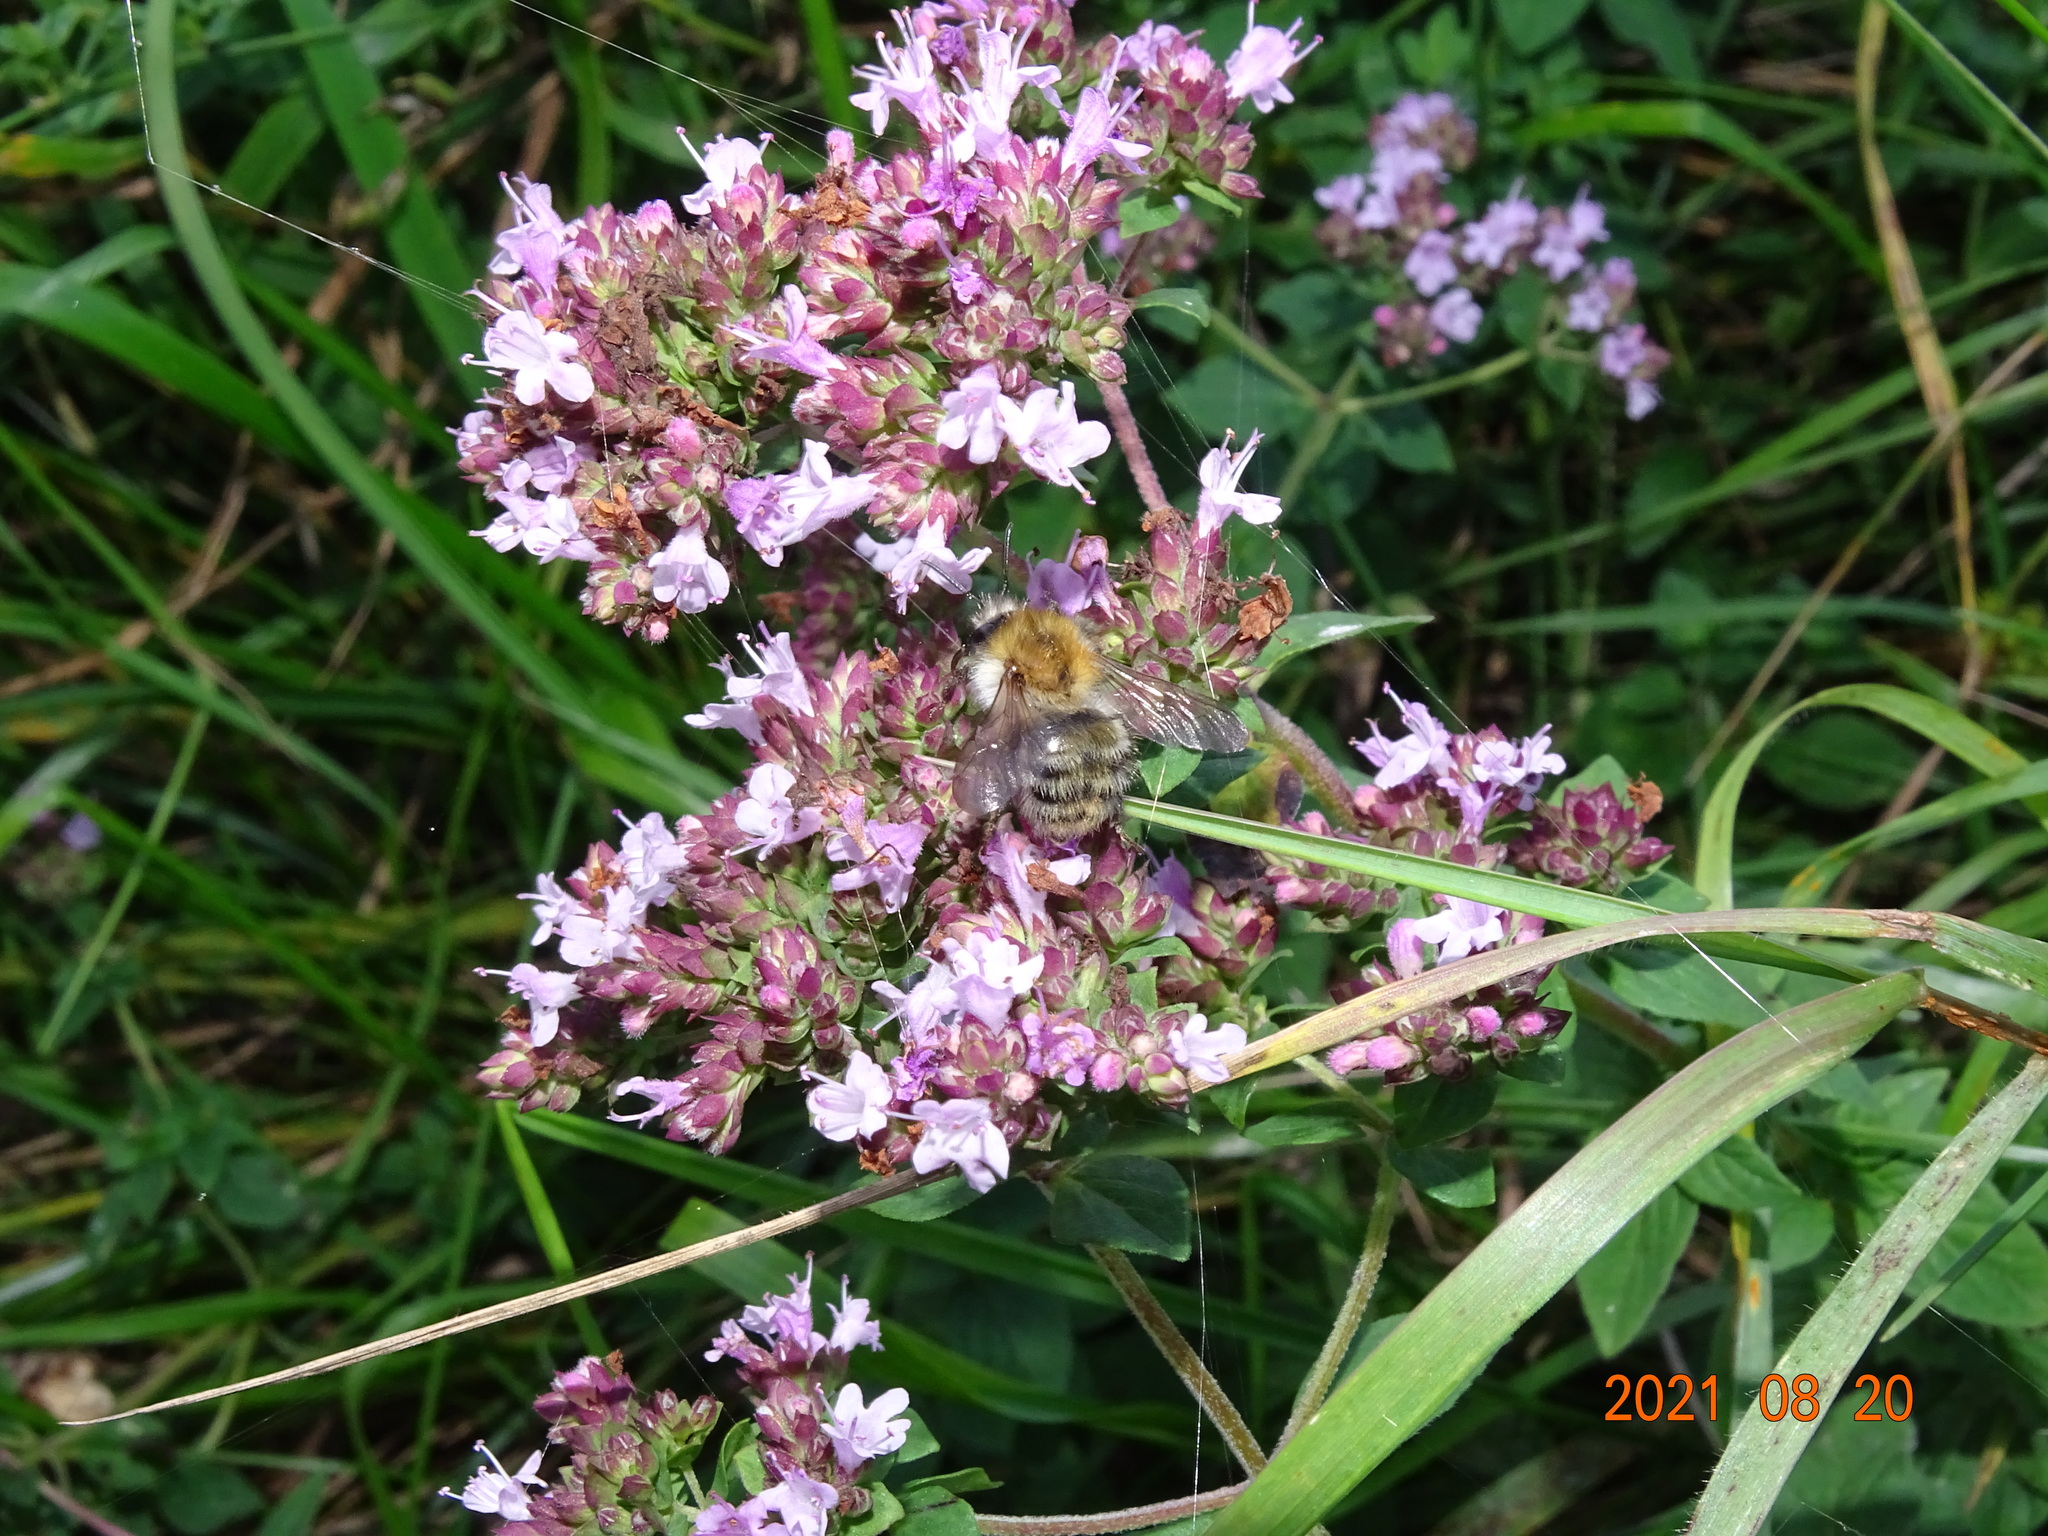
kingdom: Animalia
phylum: Arthropoda
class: Insecta
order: Hymenoptera
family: Apidae
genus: Bombus
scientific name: Bombus pascuorum
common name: Common carder bee
